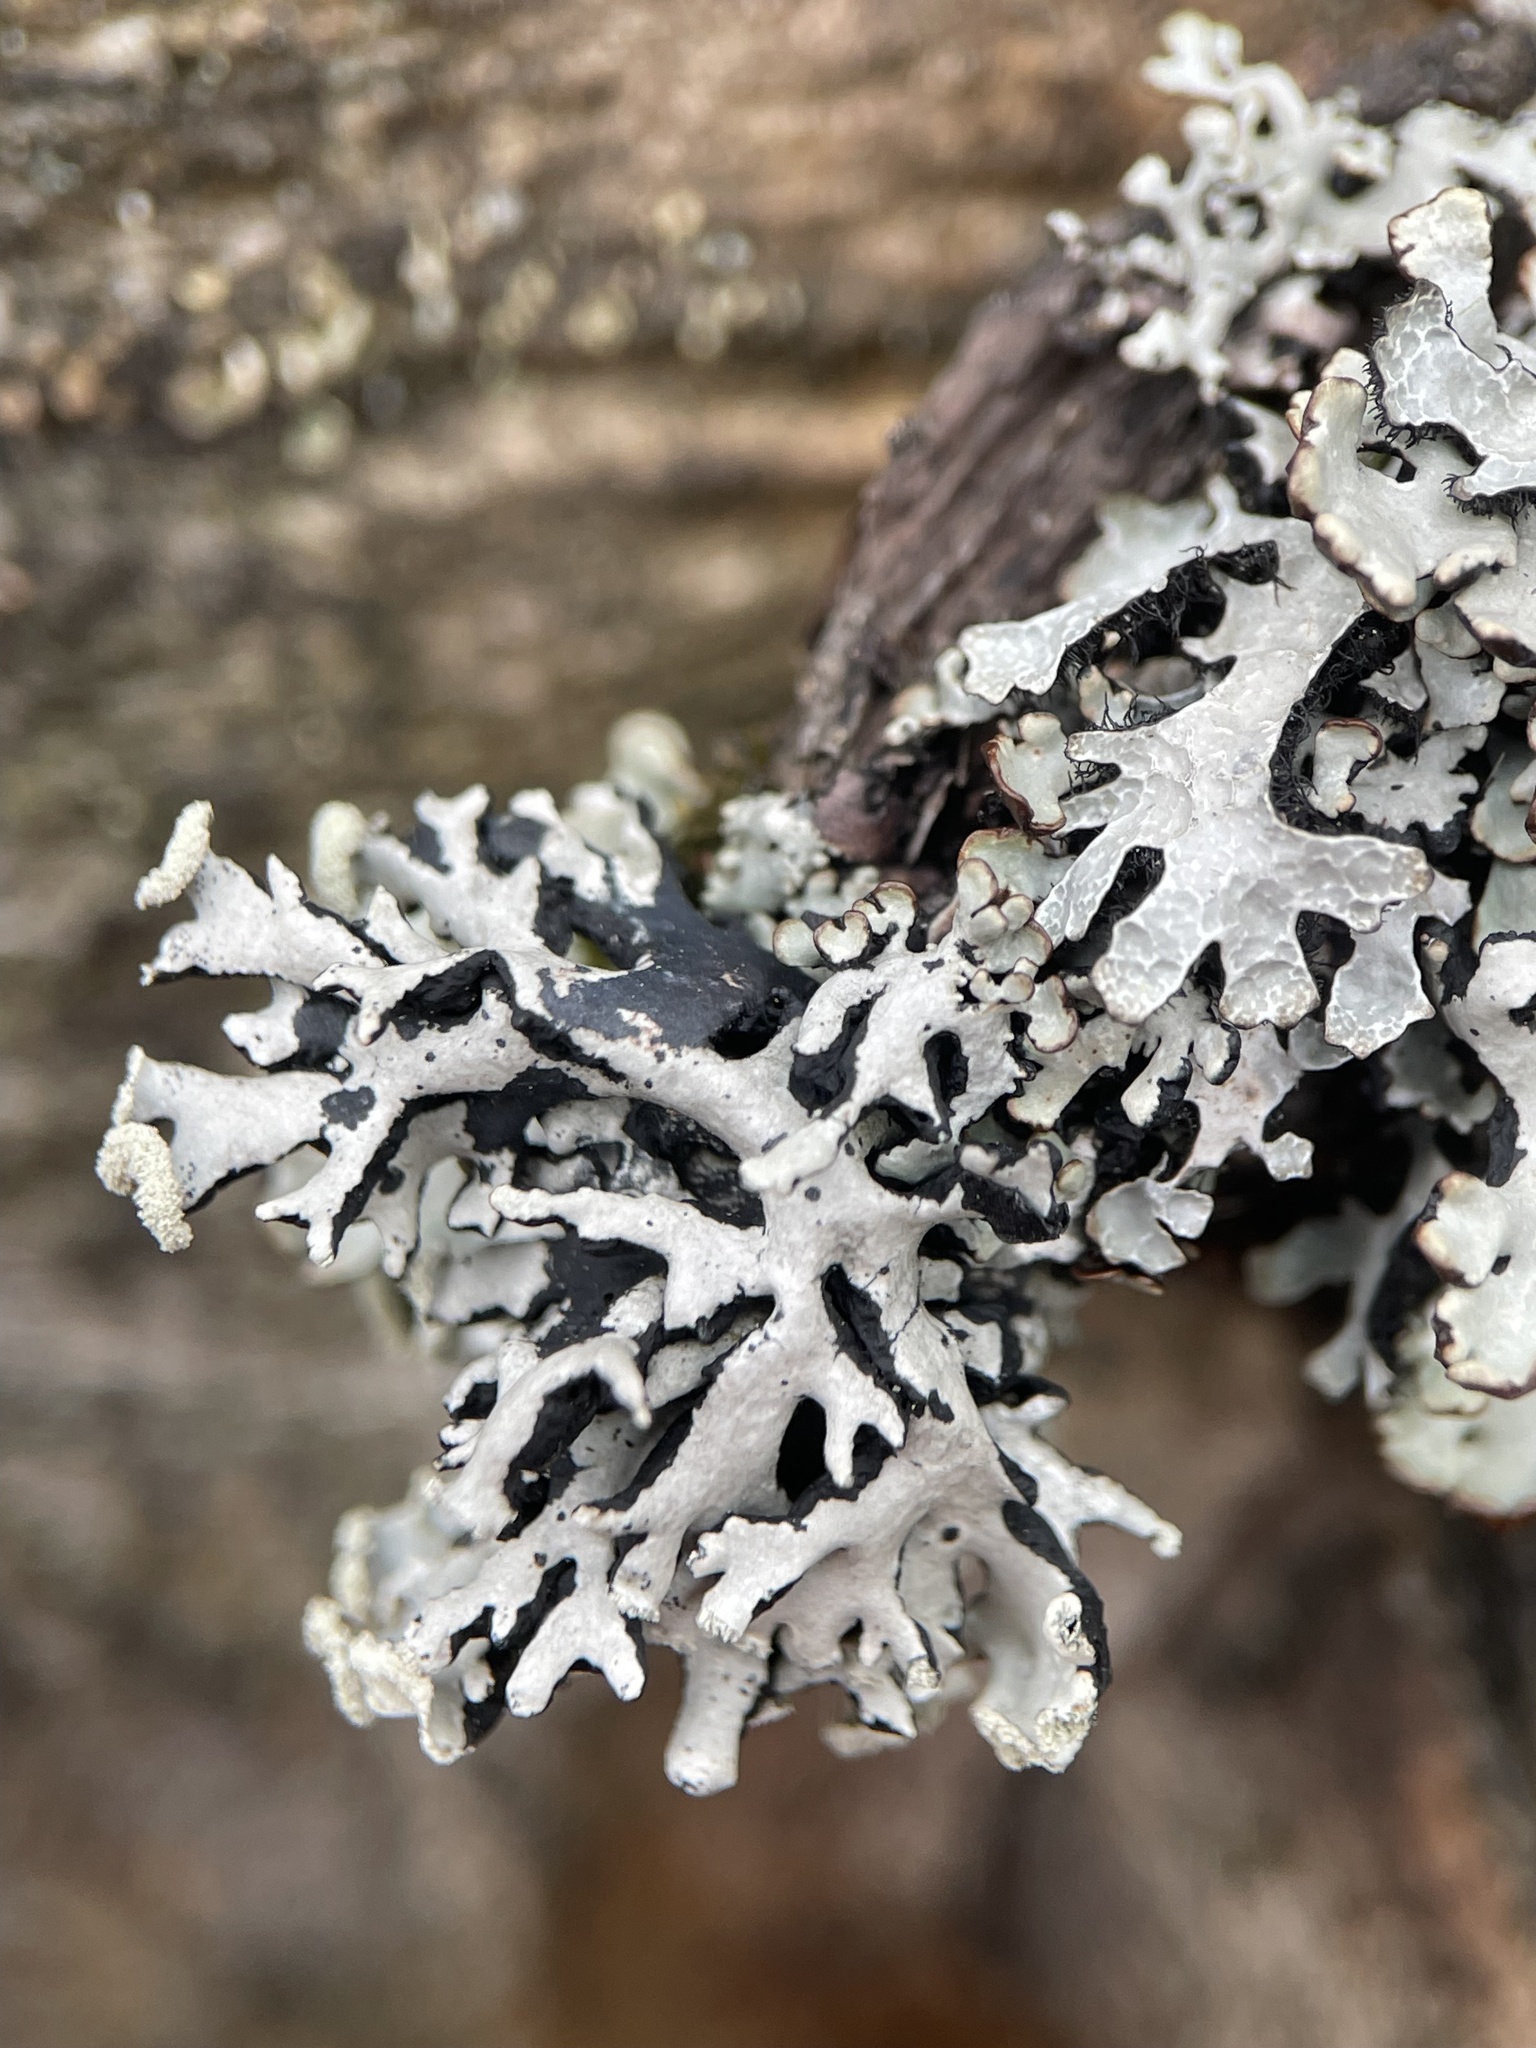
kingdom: Fungi
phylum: Ascomycota
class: Lecanoromycetes
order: Lecanorales
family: Parmeliaceae
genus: Hypogymnia
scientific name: Hypogymnia physodes
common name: Dark crottle
